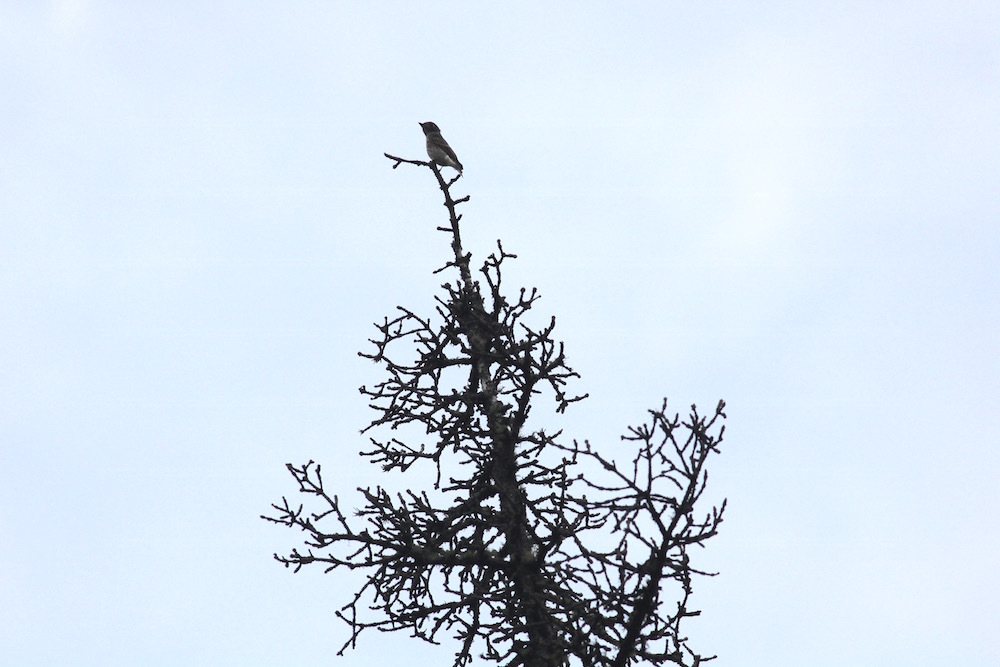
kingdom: Animalia
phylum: Chordata
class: Aves
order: Passeriformes
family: Muscicapidae
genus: Muscicapa
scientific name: Muscicapa sibirica
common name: Dark-sided flycatcher
